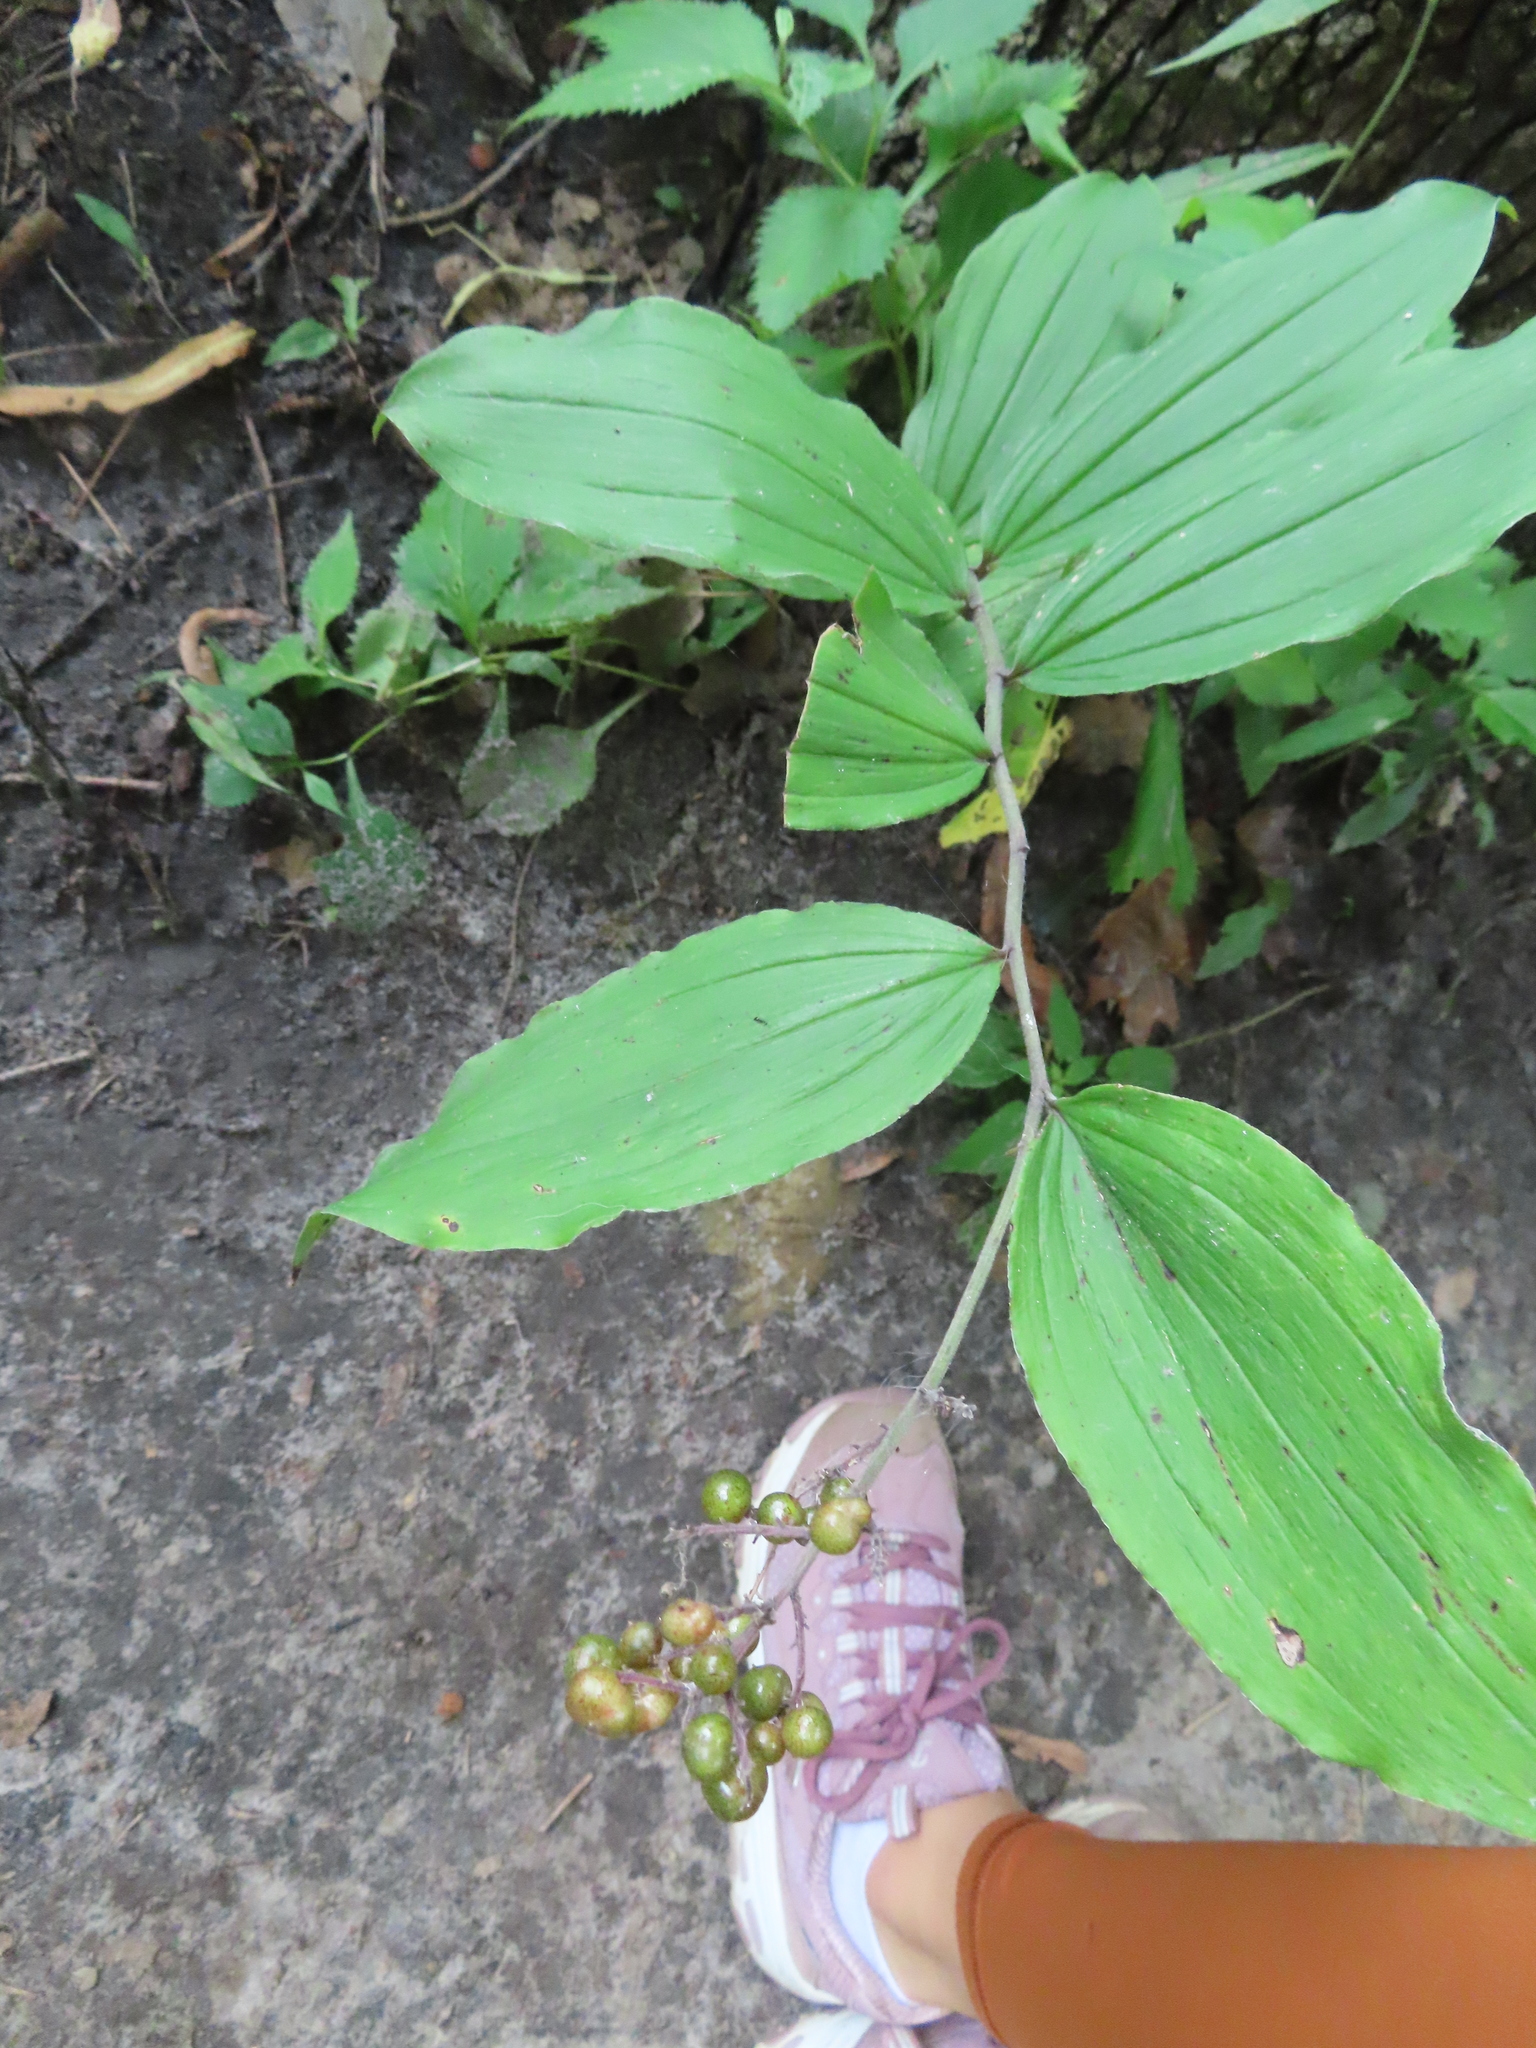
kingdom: Plantae
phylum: Tracheophyta
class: Liliopsida
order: Asparagales
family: Asparagaceae
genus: Maianthemum
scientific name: Maianthemum racemosum
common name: False spikenard
